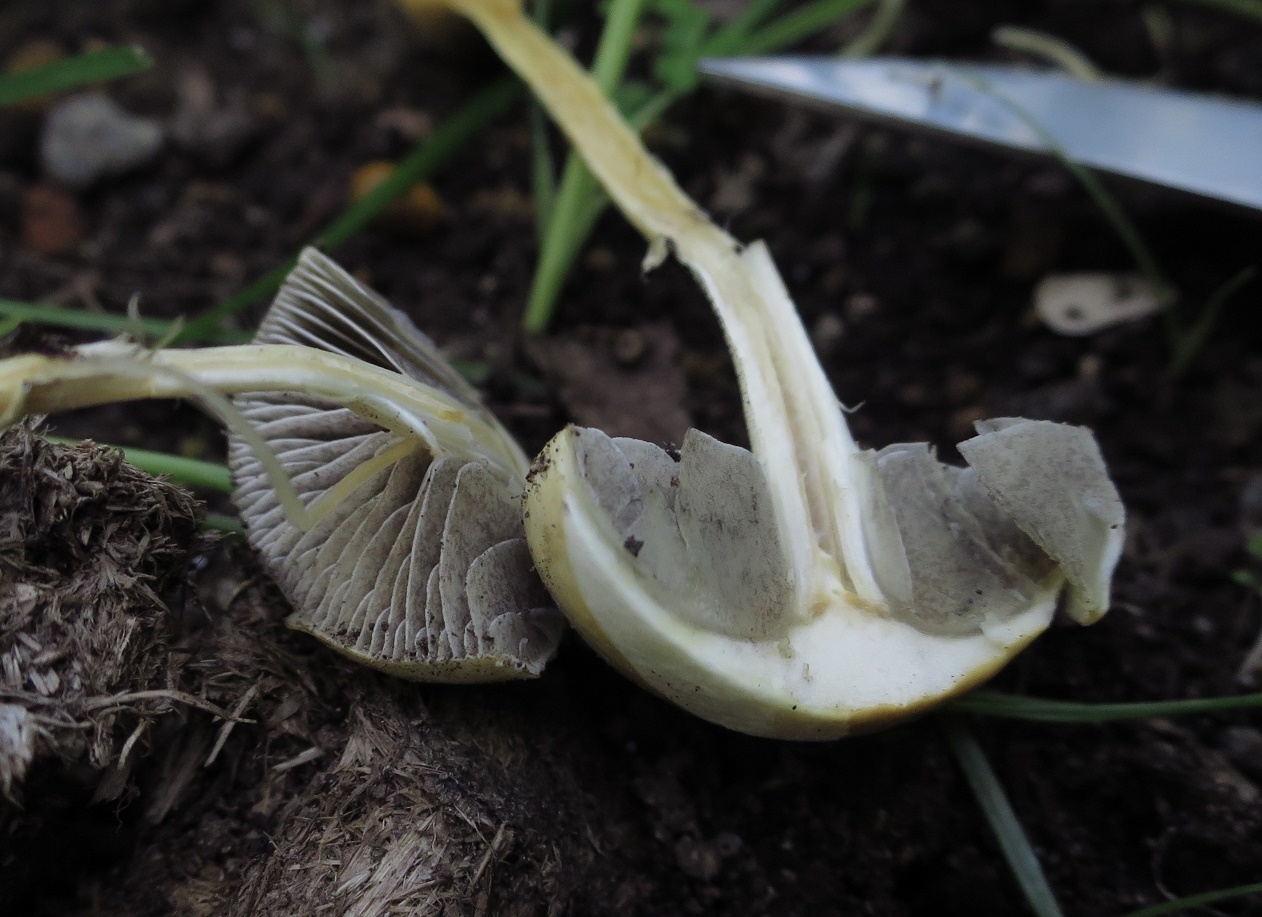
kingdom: Fungi
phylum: Basidiomycota
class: Agaricomycetes
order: Agaricales
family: Strophariaceae
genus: Protostropharia
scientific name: Protostropharia semiglobata
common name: Dung roundhead
